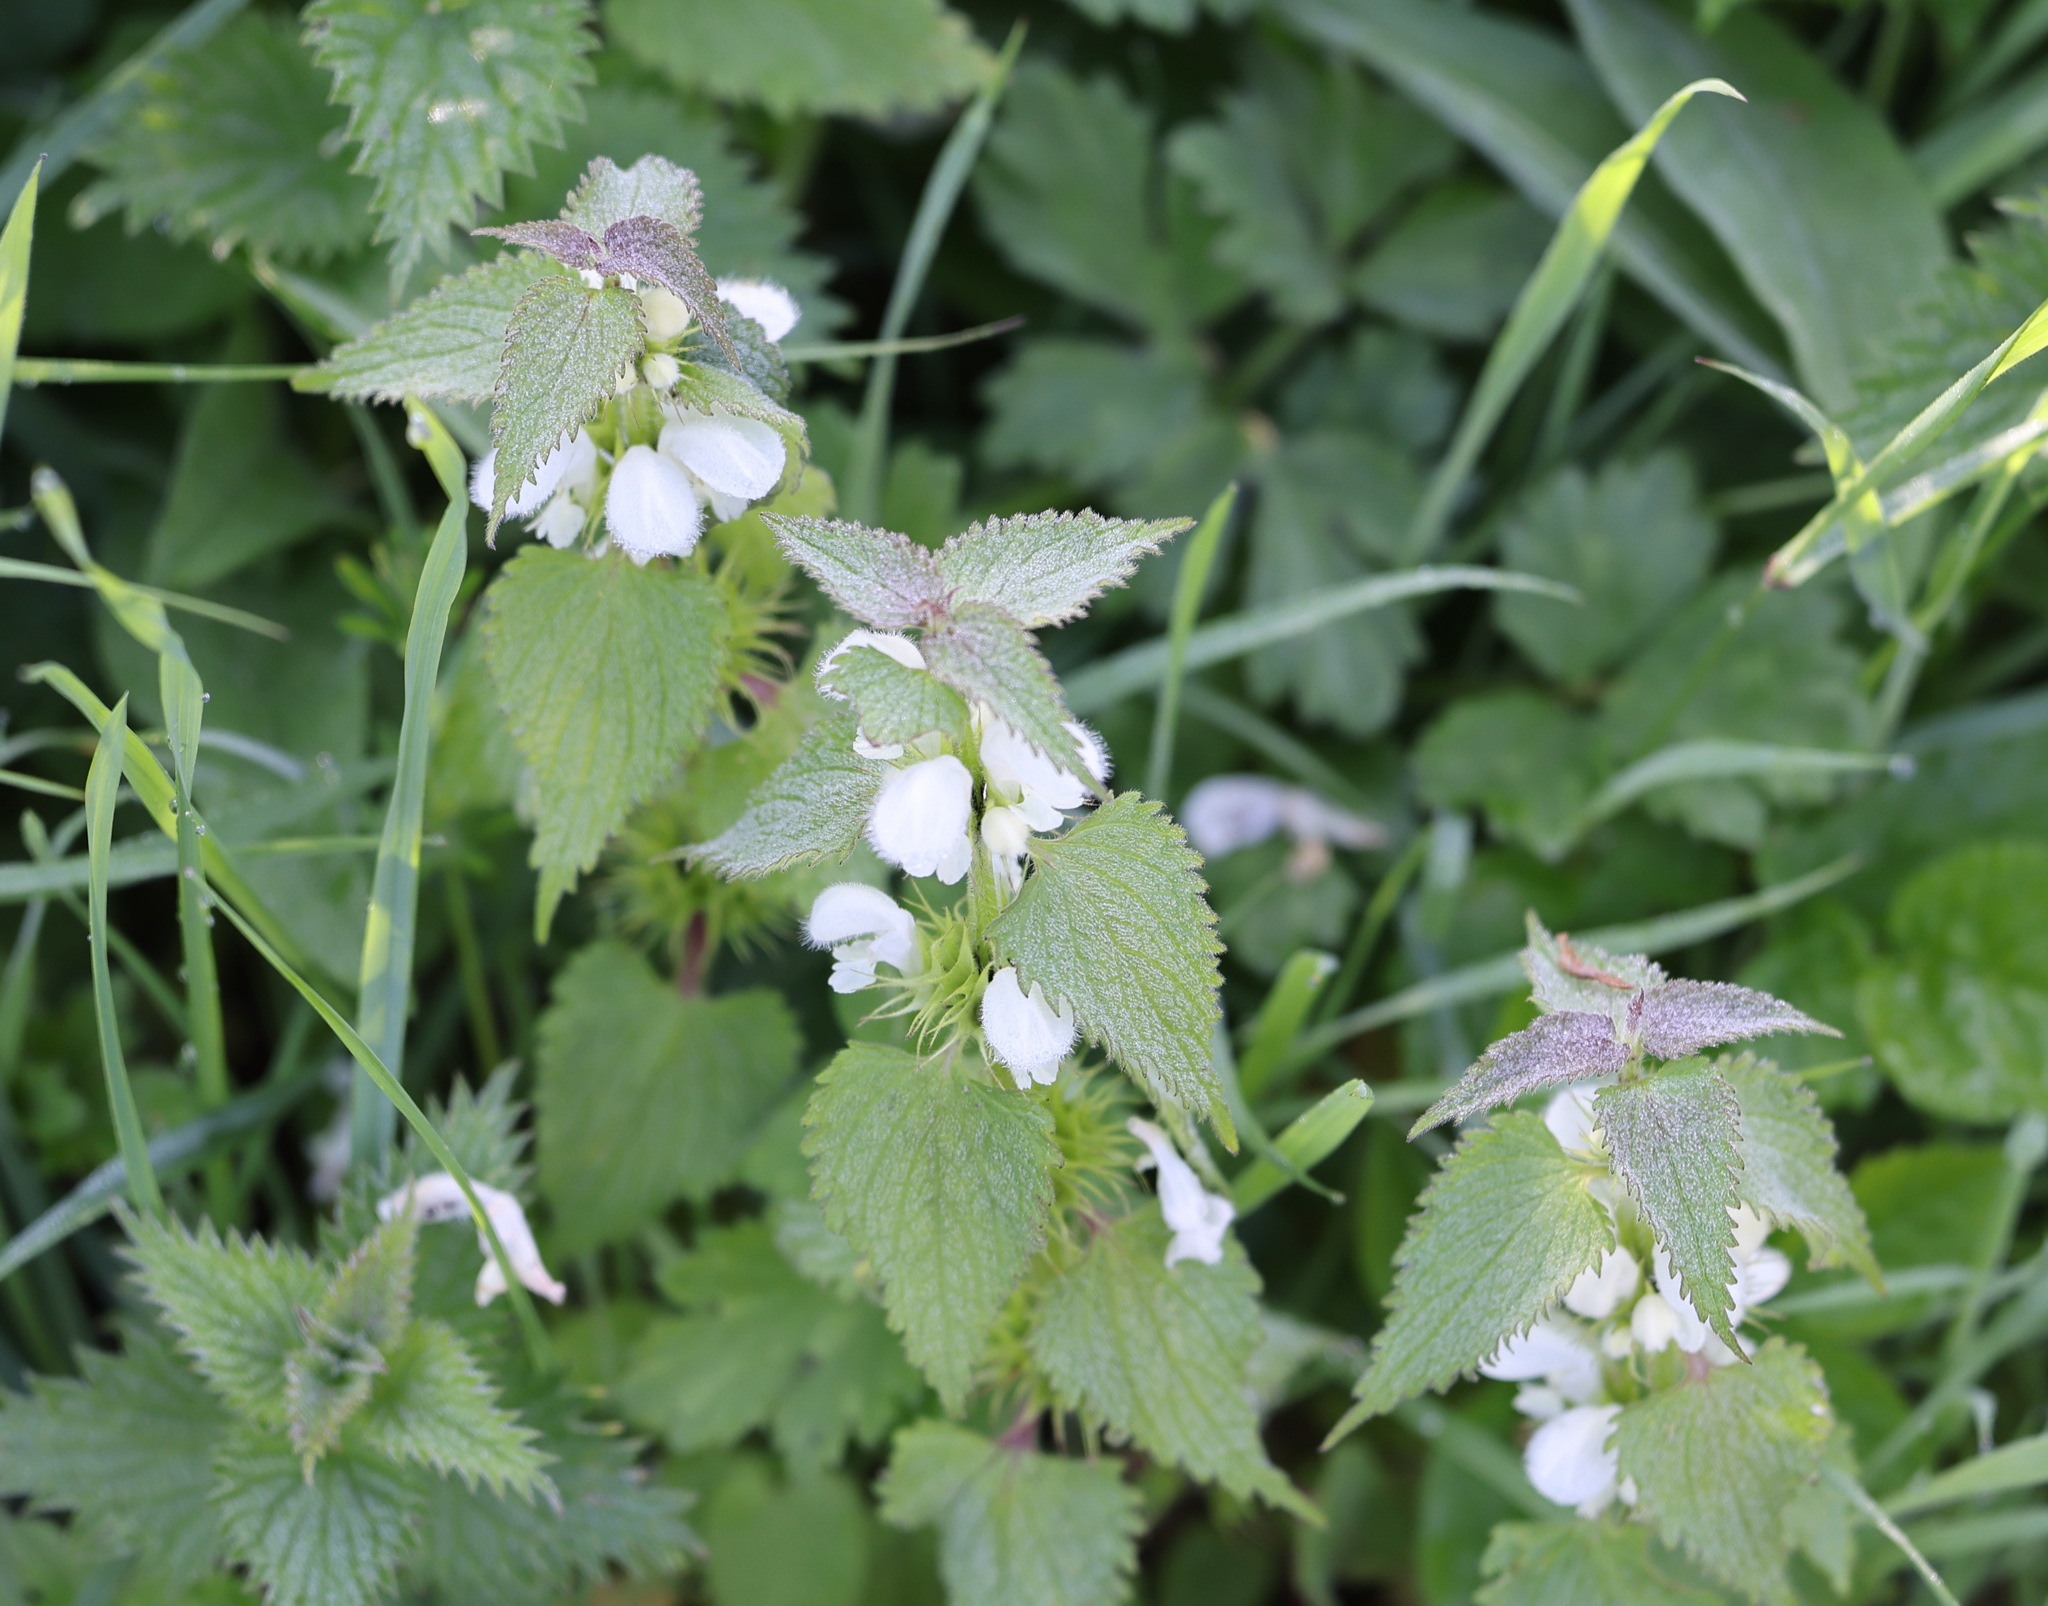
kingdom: Plantae
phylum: Tracheophyta
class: Magnoliopsida
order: Lamiales
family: Lamiaceae
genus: Lamium
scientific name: Lamium album
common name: White dead-nettle
